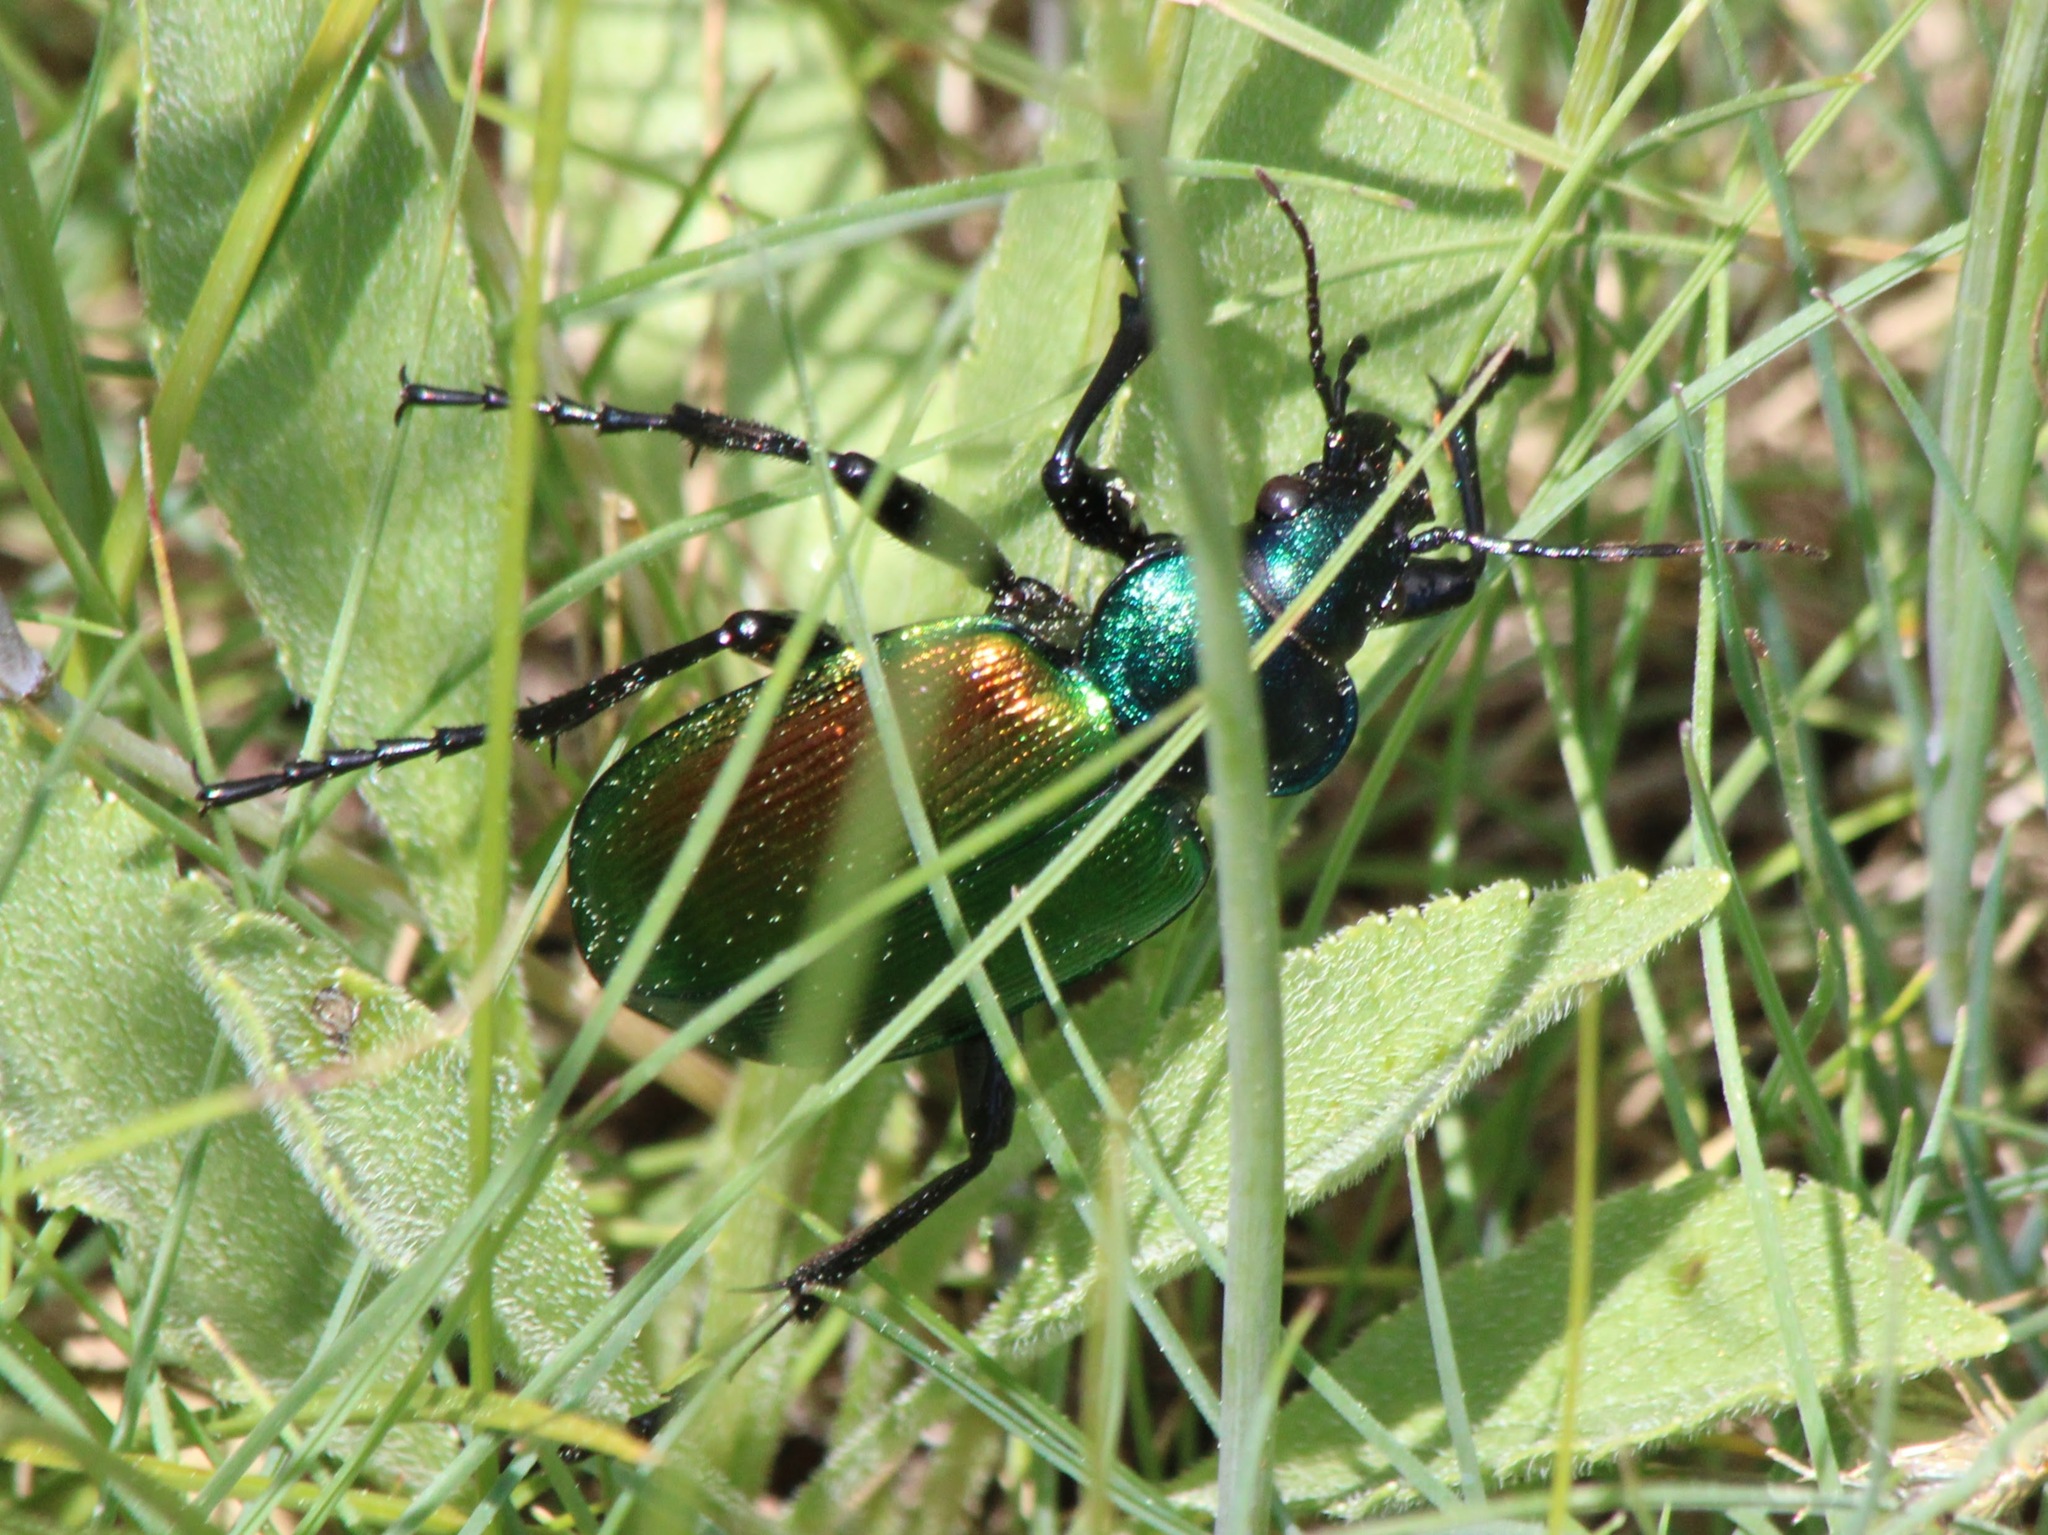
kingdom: Animalia
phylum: Arthropoda
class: Insecta
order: Coleoptera
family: Carabidae
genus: Calosoma
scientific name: Calosoma sycophanta
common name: Forest caterpillar hunter
